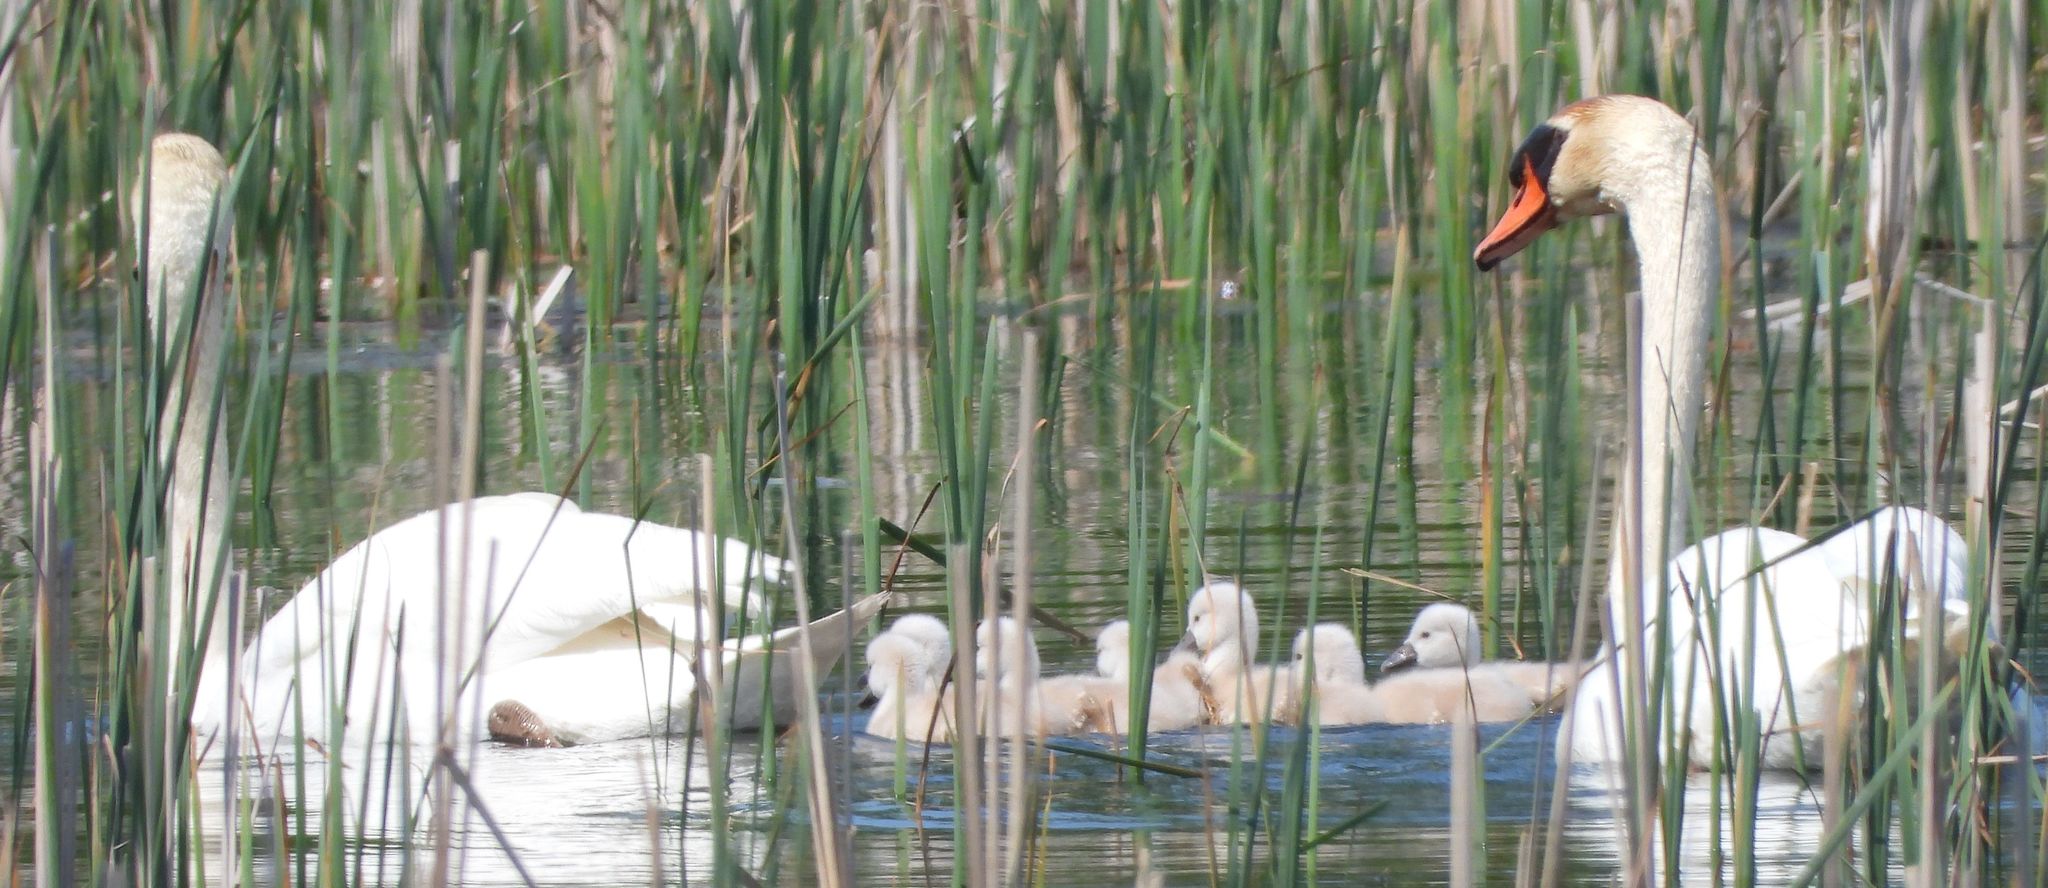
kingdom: Animalia
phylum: Chordata
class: Aves
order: Anseriformes
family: Anatidae
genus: Cygnus
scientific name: Cygnus olor
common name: Mute swan
